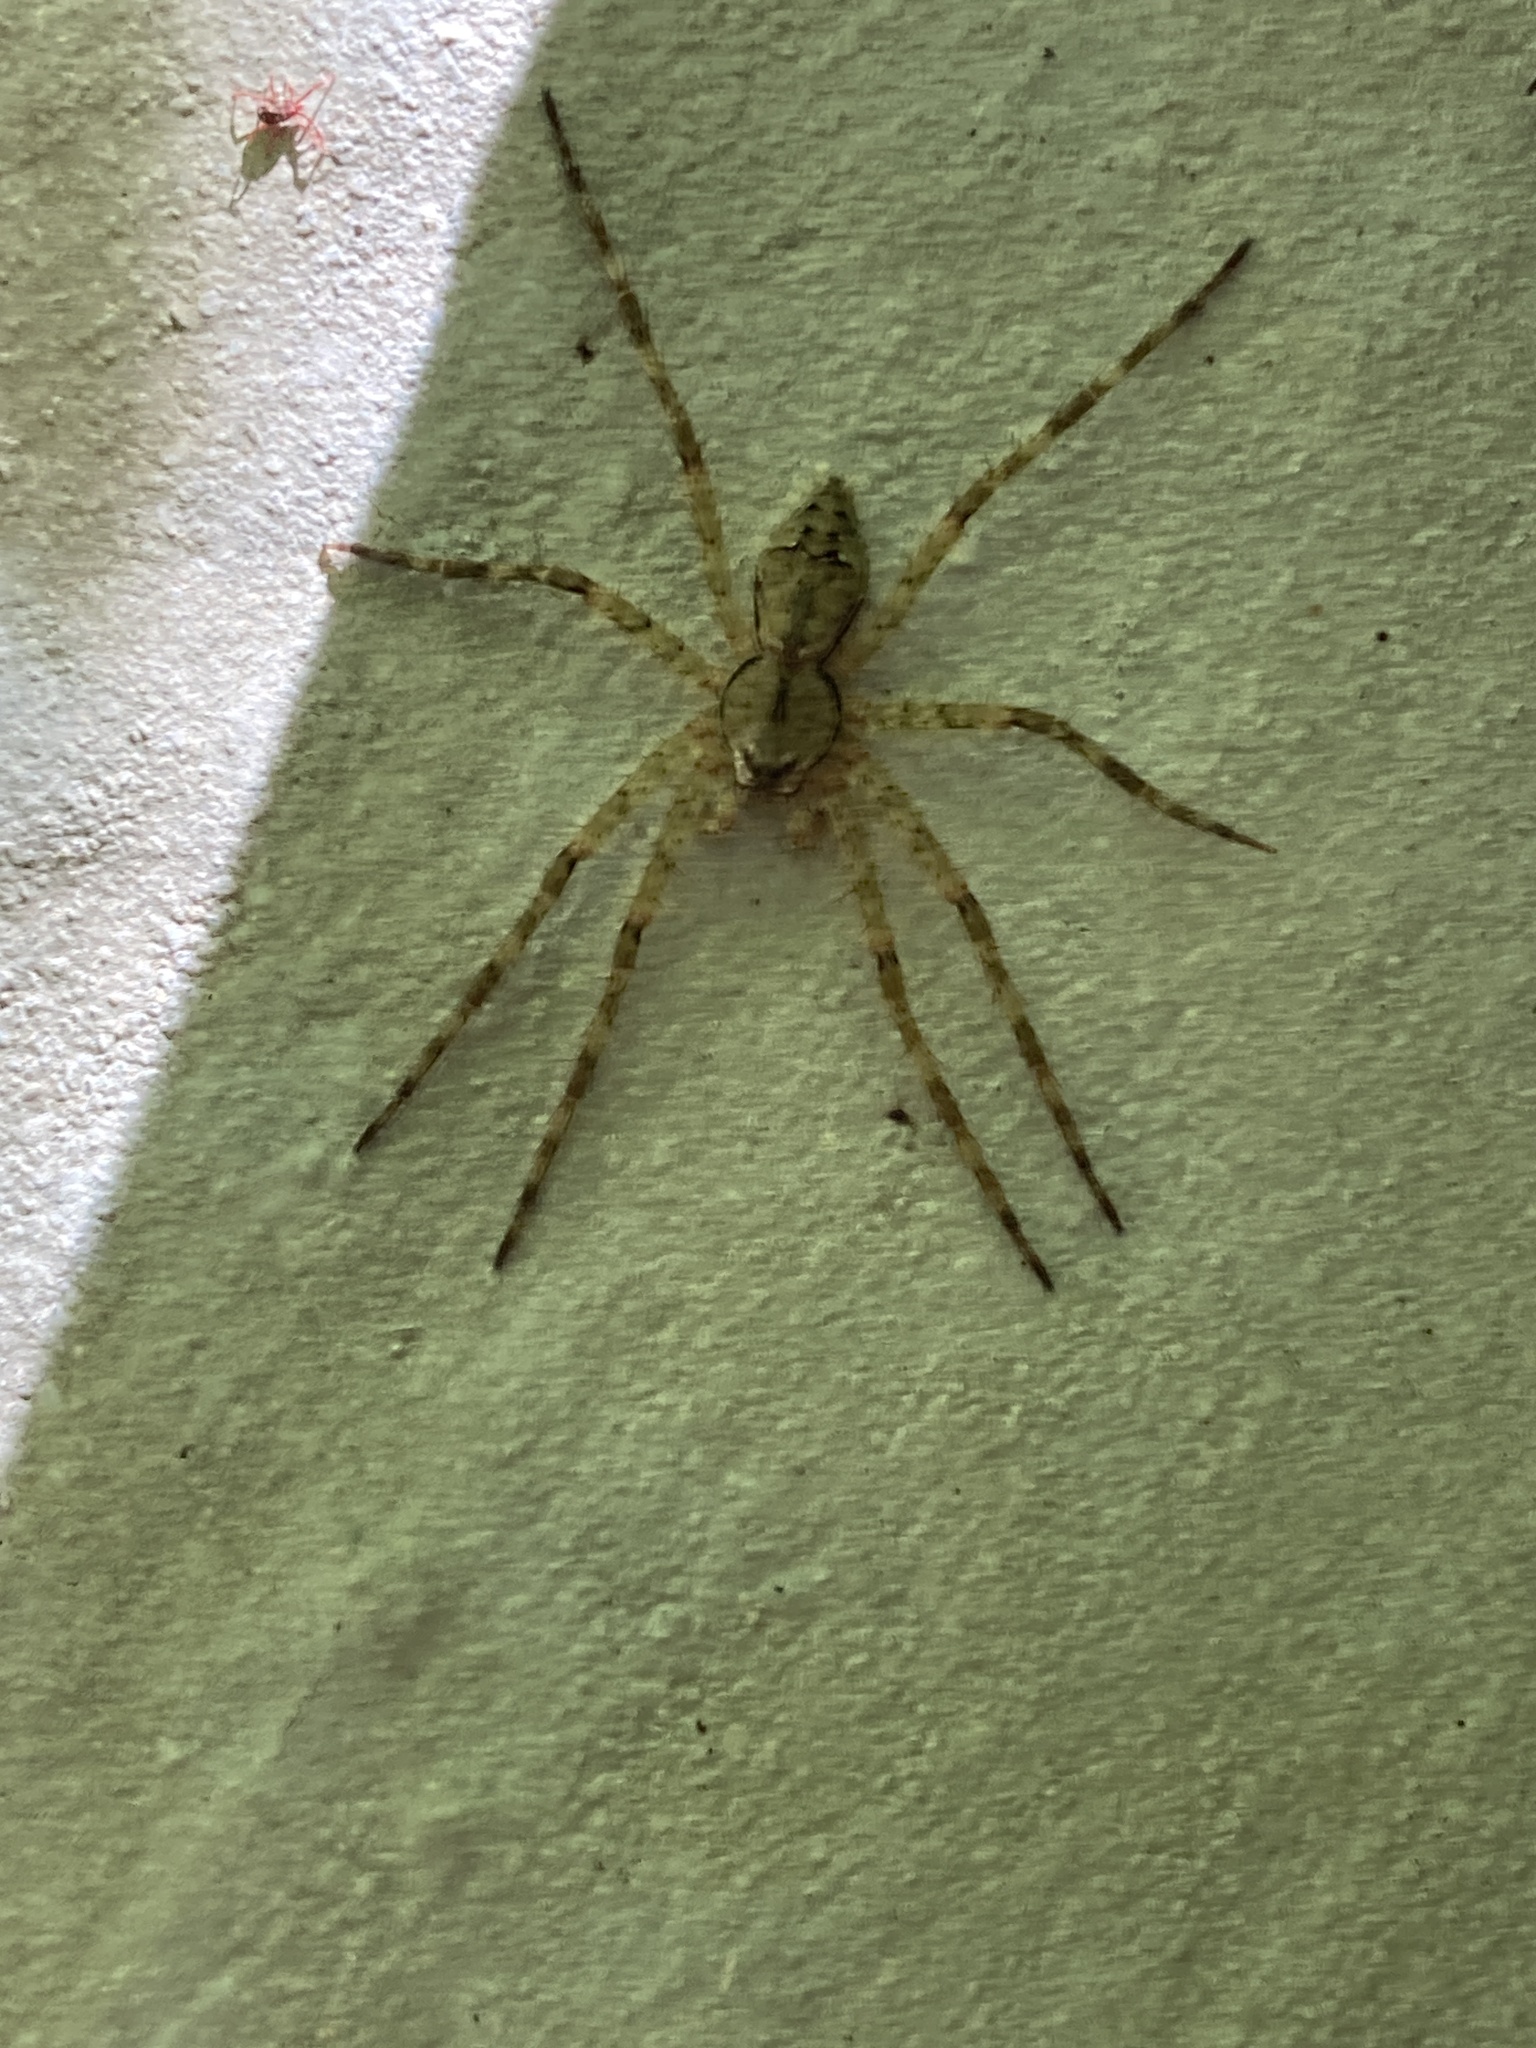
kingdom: Animalia
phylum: Arthropoda
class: Arachnida
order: Araneae
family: Pisauridae
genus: Dolomedes
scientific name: Dolomedes albineus
